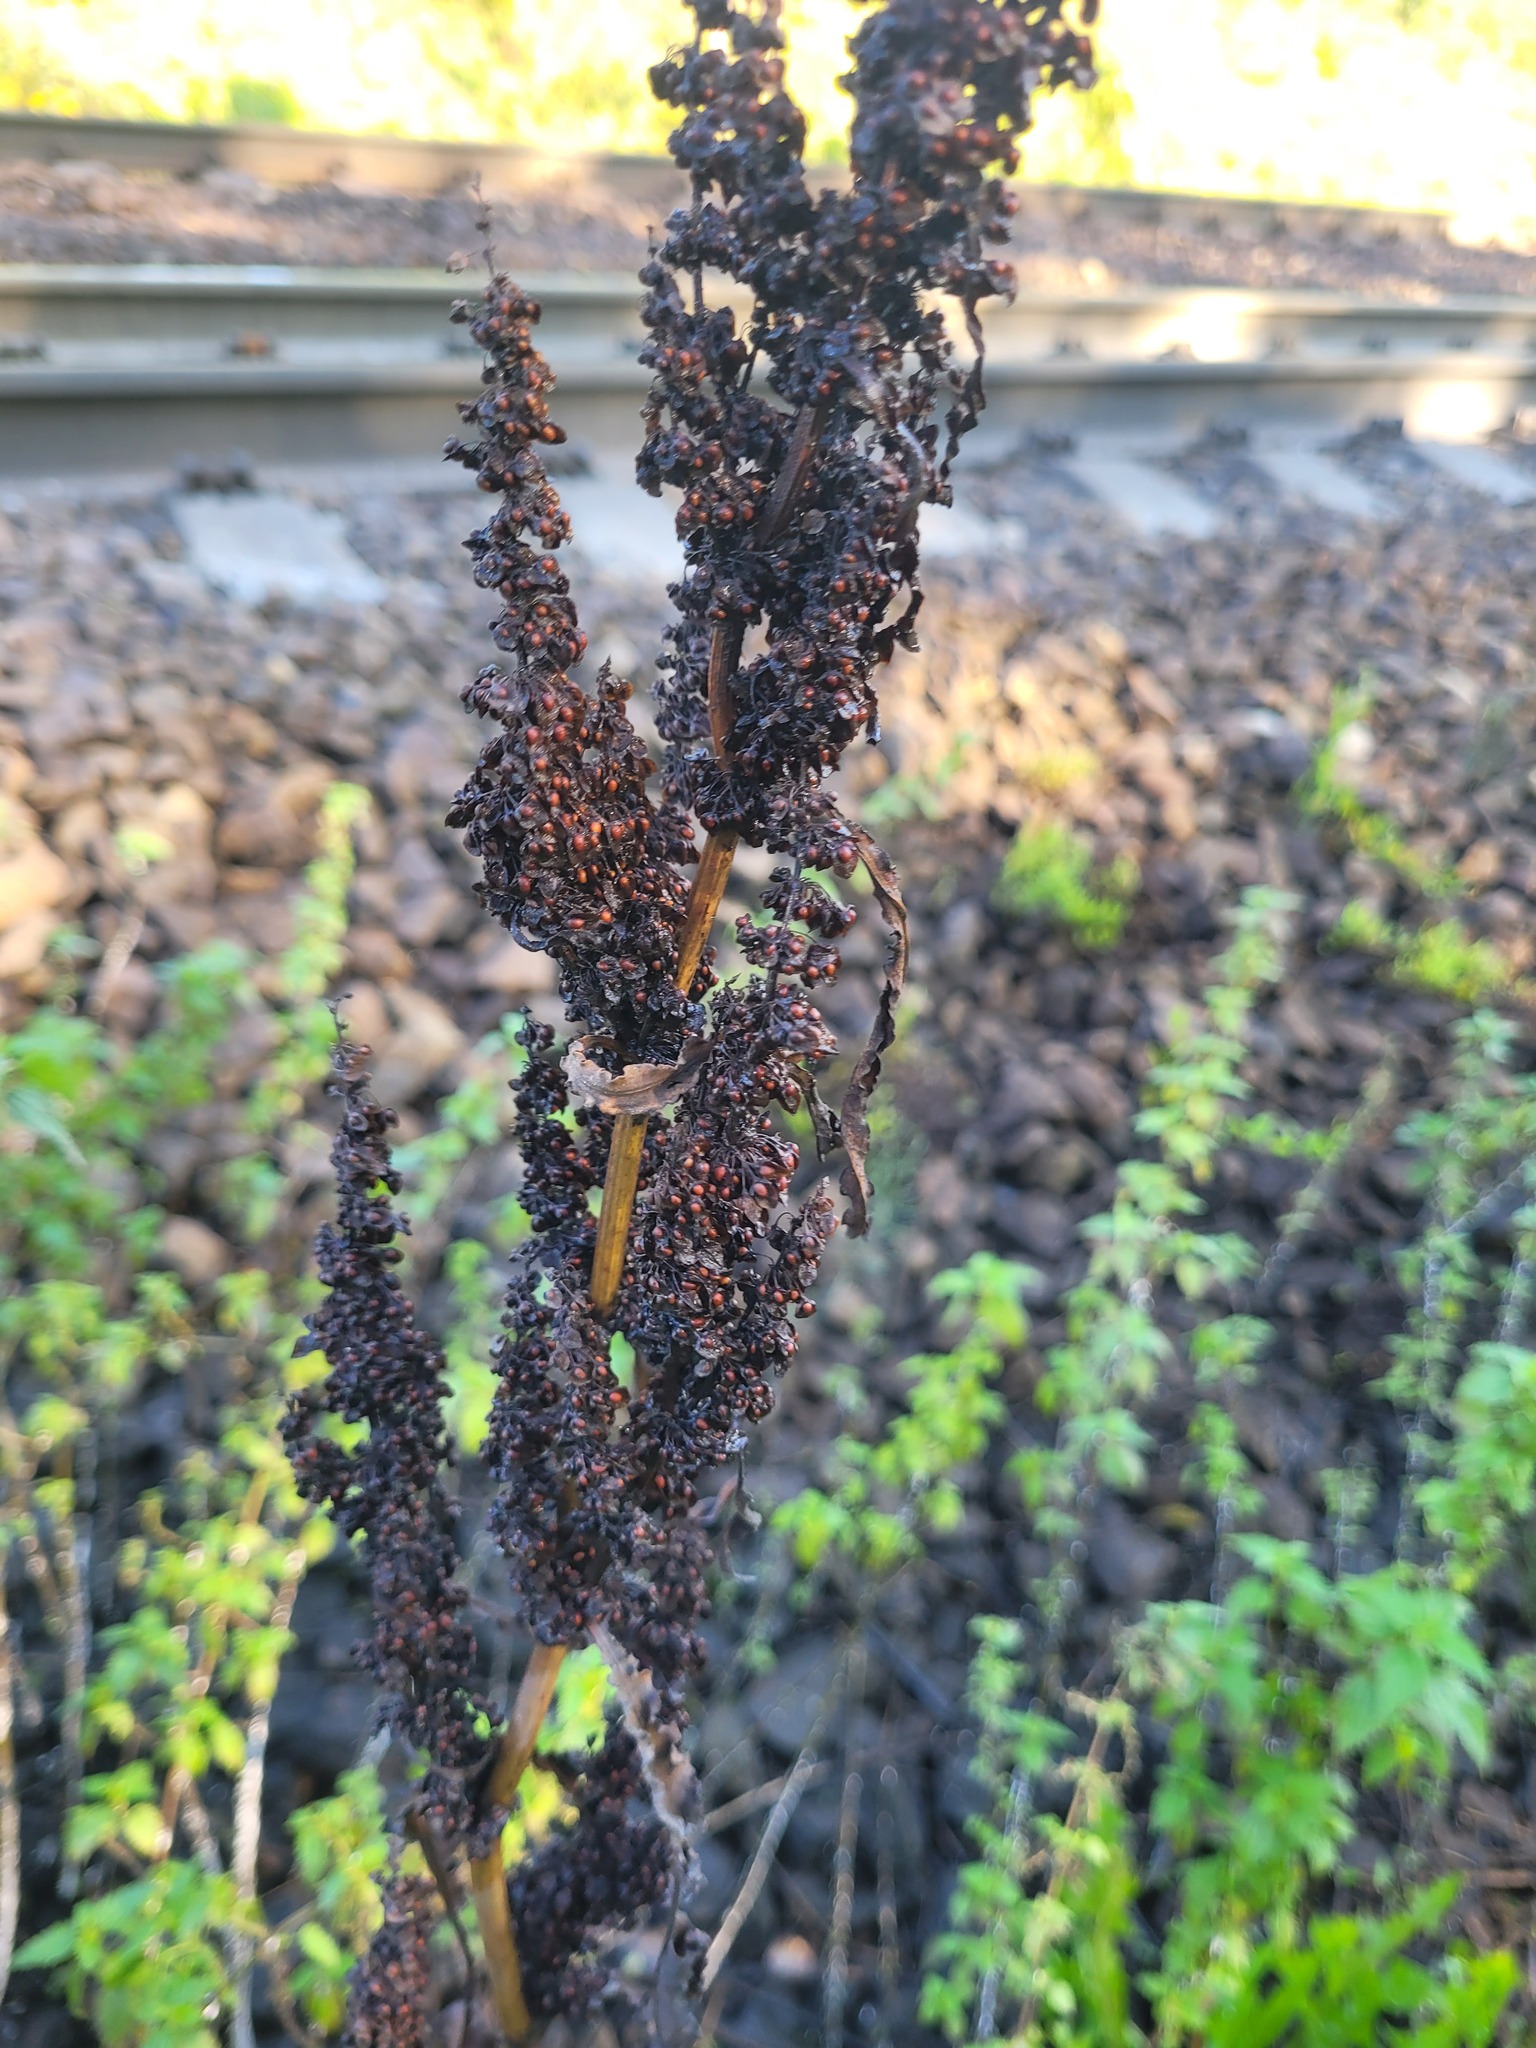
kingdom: Plantae
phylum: Tracheophyta
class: Magnoliopsida
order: Caryophyllales
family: Polygonaceae
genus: Rumex
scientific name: Rumex crispus
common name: Curled dock
